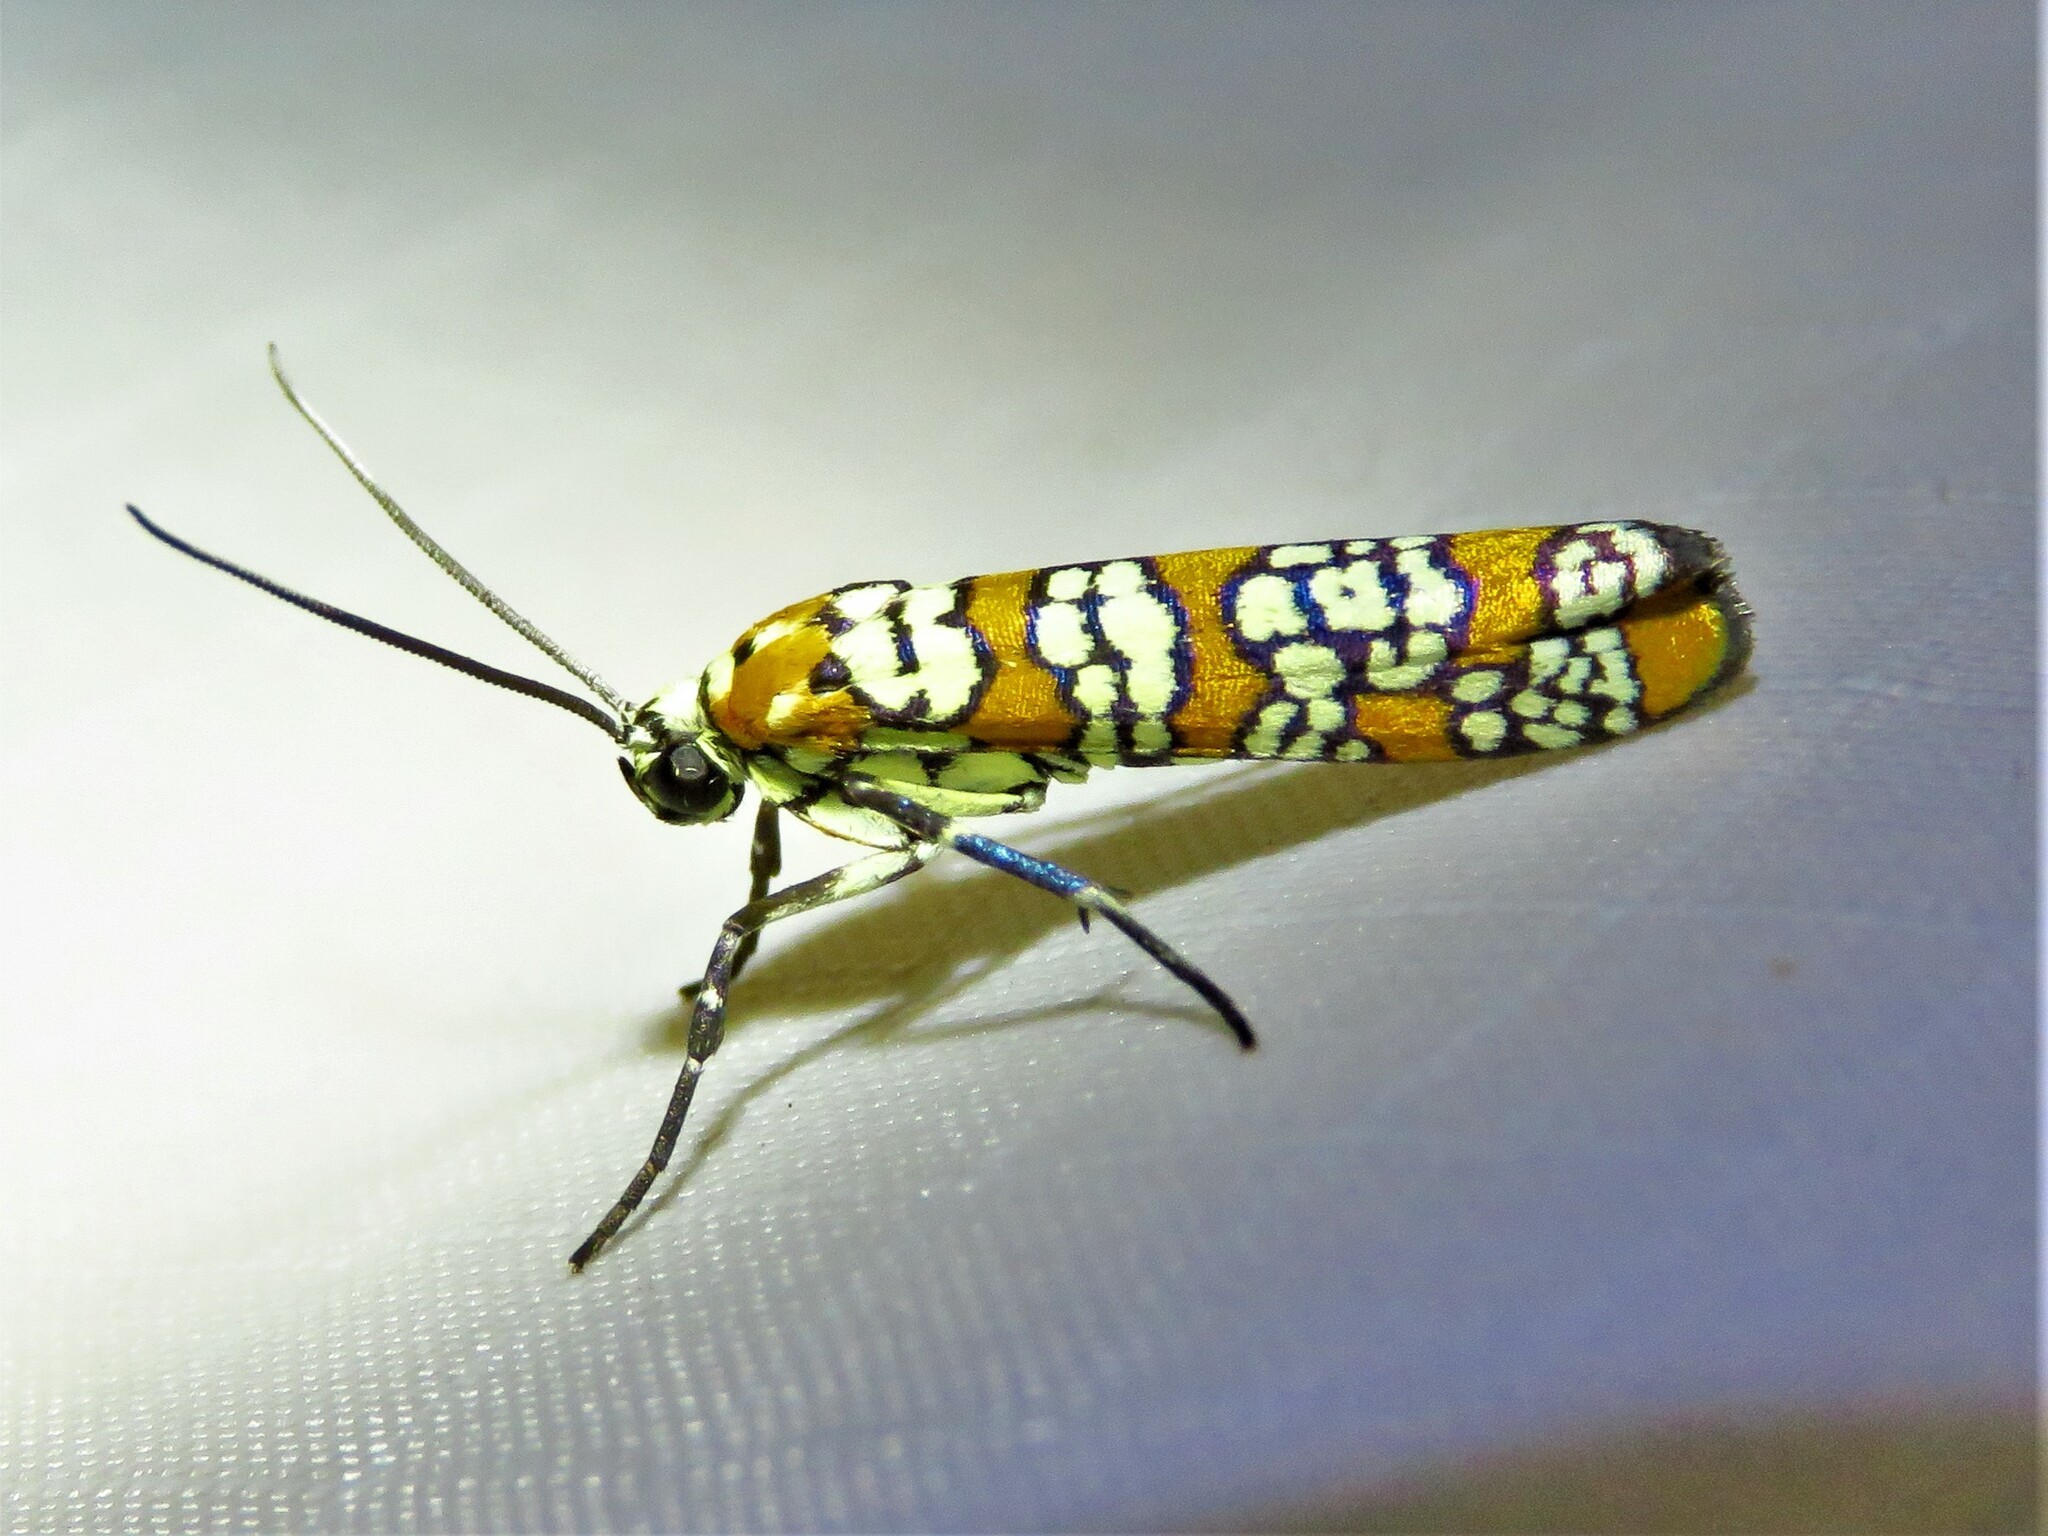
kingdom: Animalia
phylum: Arthropoda
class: Insecta
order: Lepidoptera
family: Attevidae
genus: Atteva
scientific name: Atteva punctella
